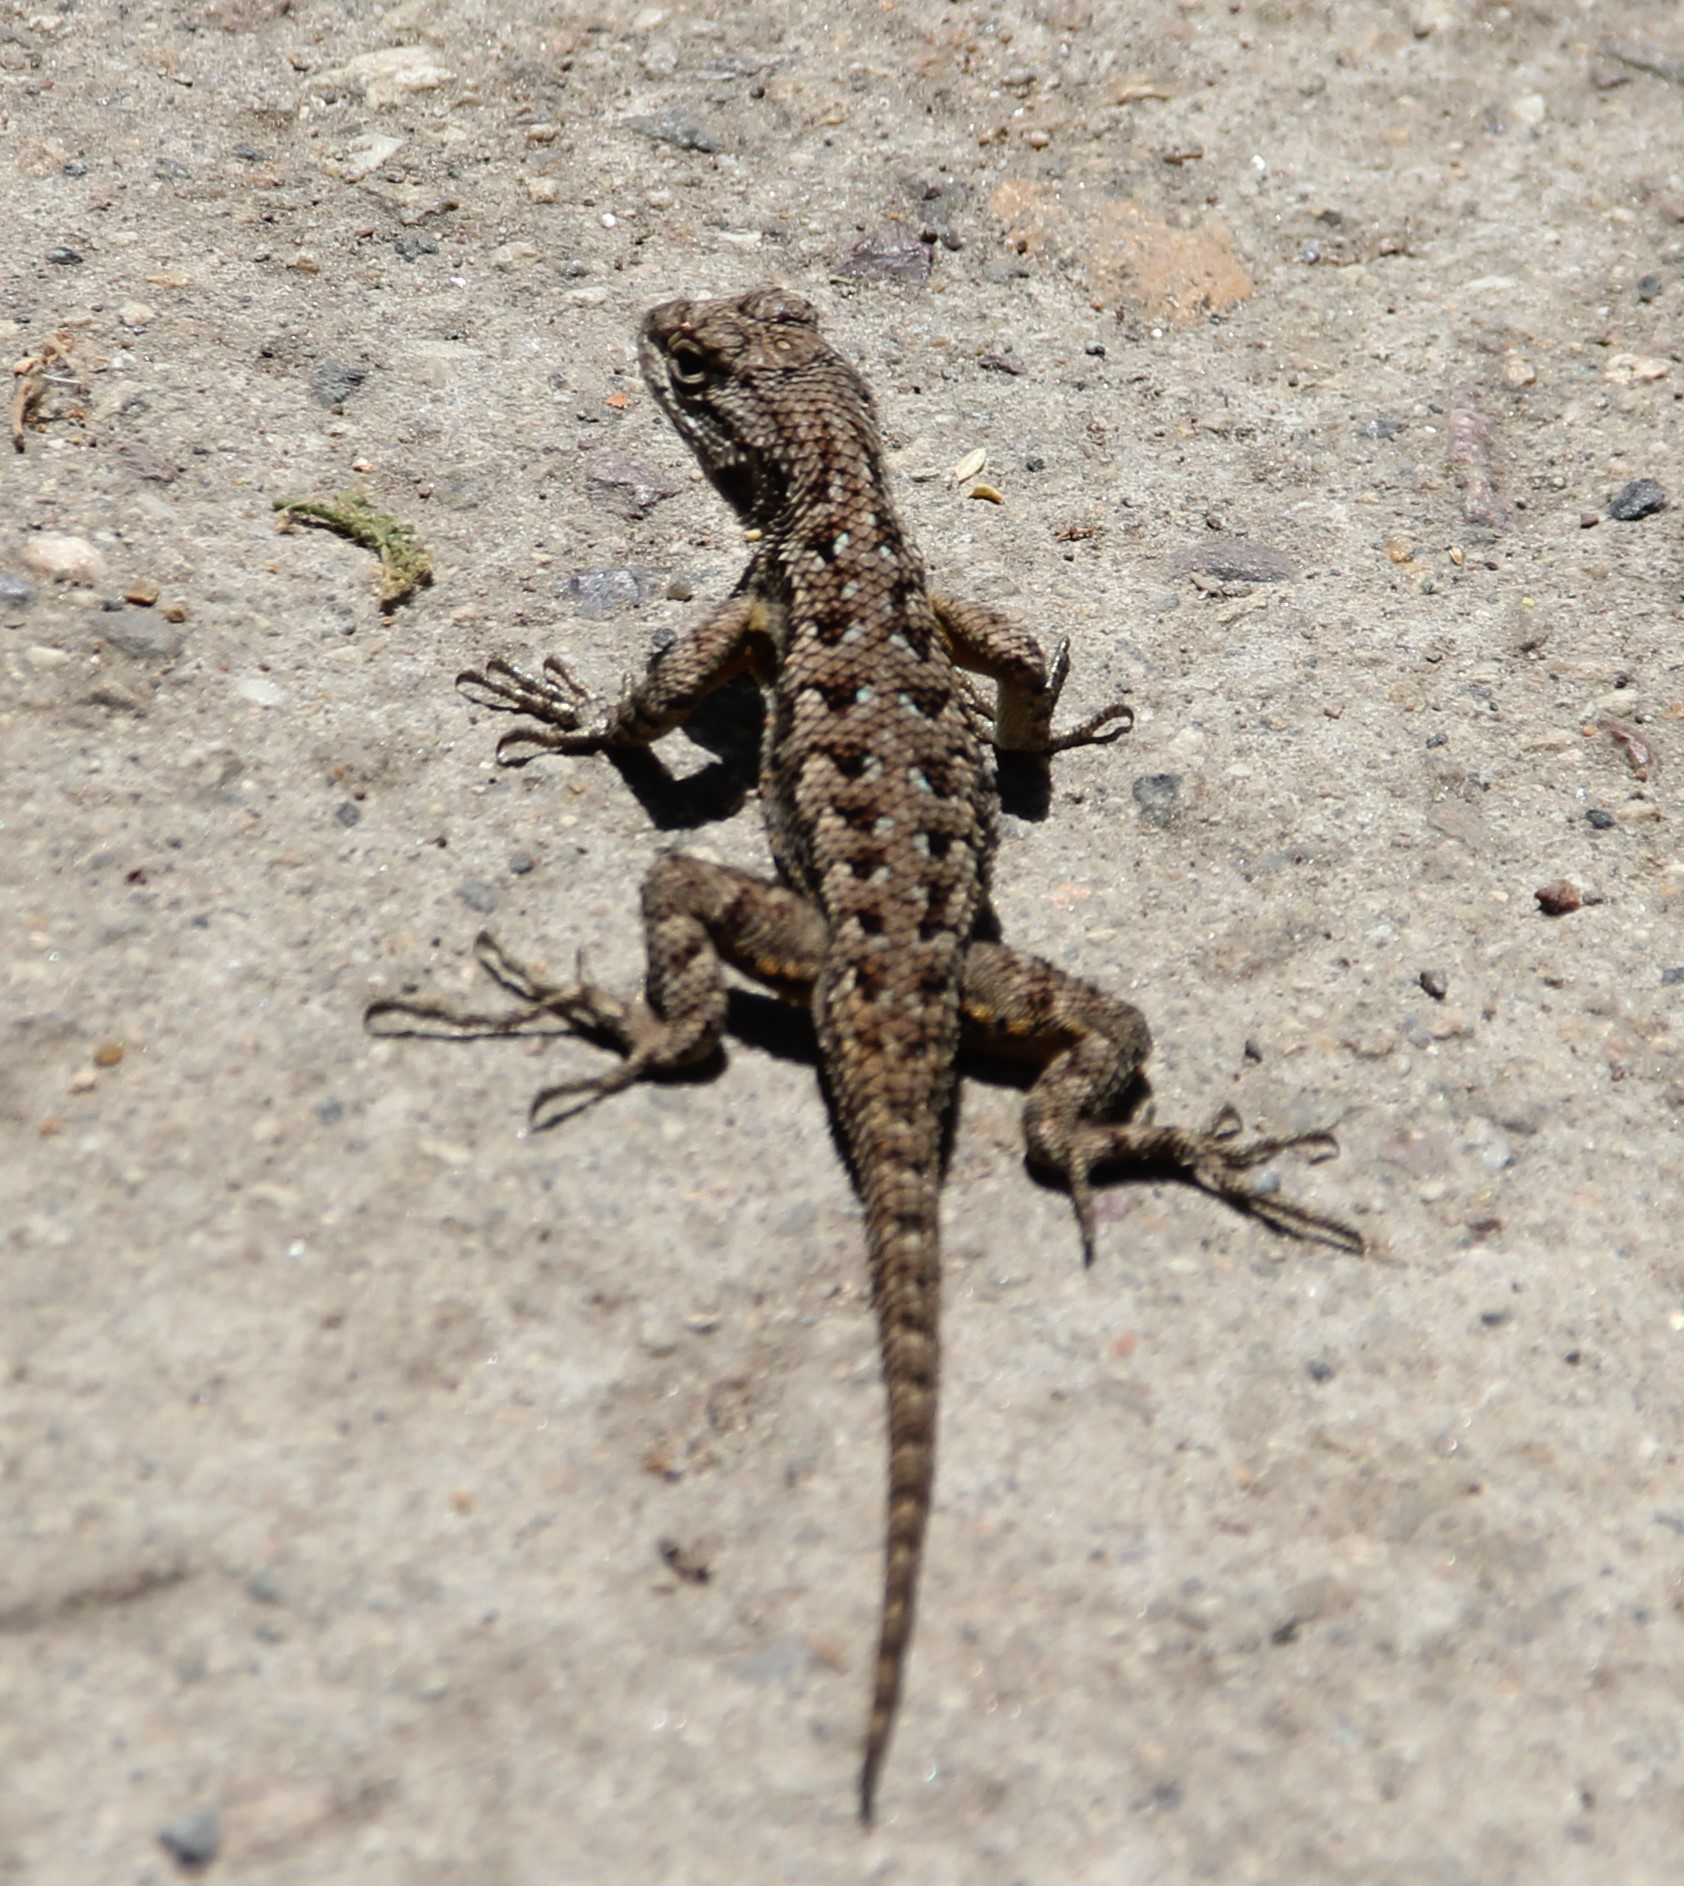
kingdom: Animalia
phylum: Chordata
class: Squamata
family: Phrynosomatidae
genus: Sceloporus
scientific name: Sceloporus occidentalis
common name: Western fence lizard
